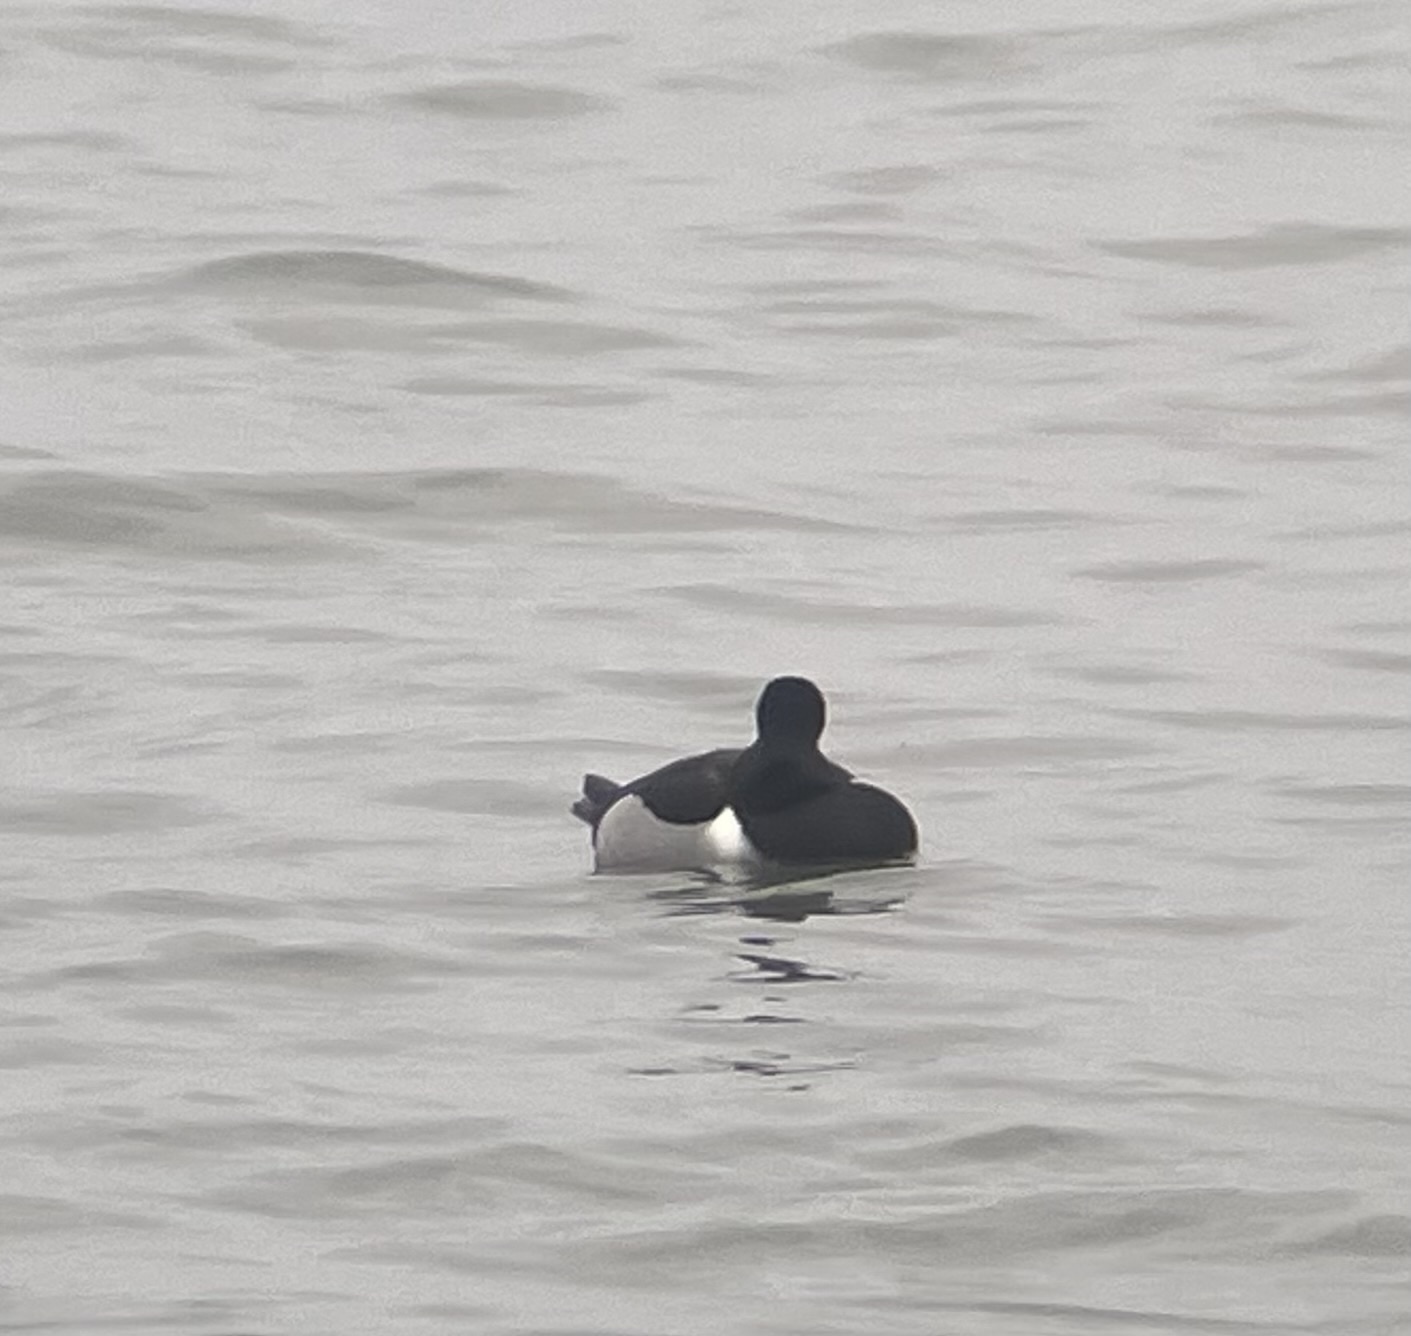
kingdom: Animalia
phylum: Chordata
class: Aves
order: Anseriformes
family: Anatidae
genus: Aythya
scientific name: Aythya collaris
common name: Ring-necked duck
